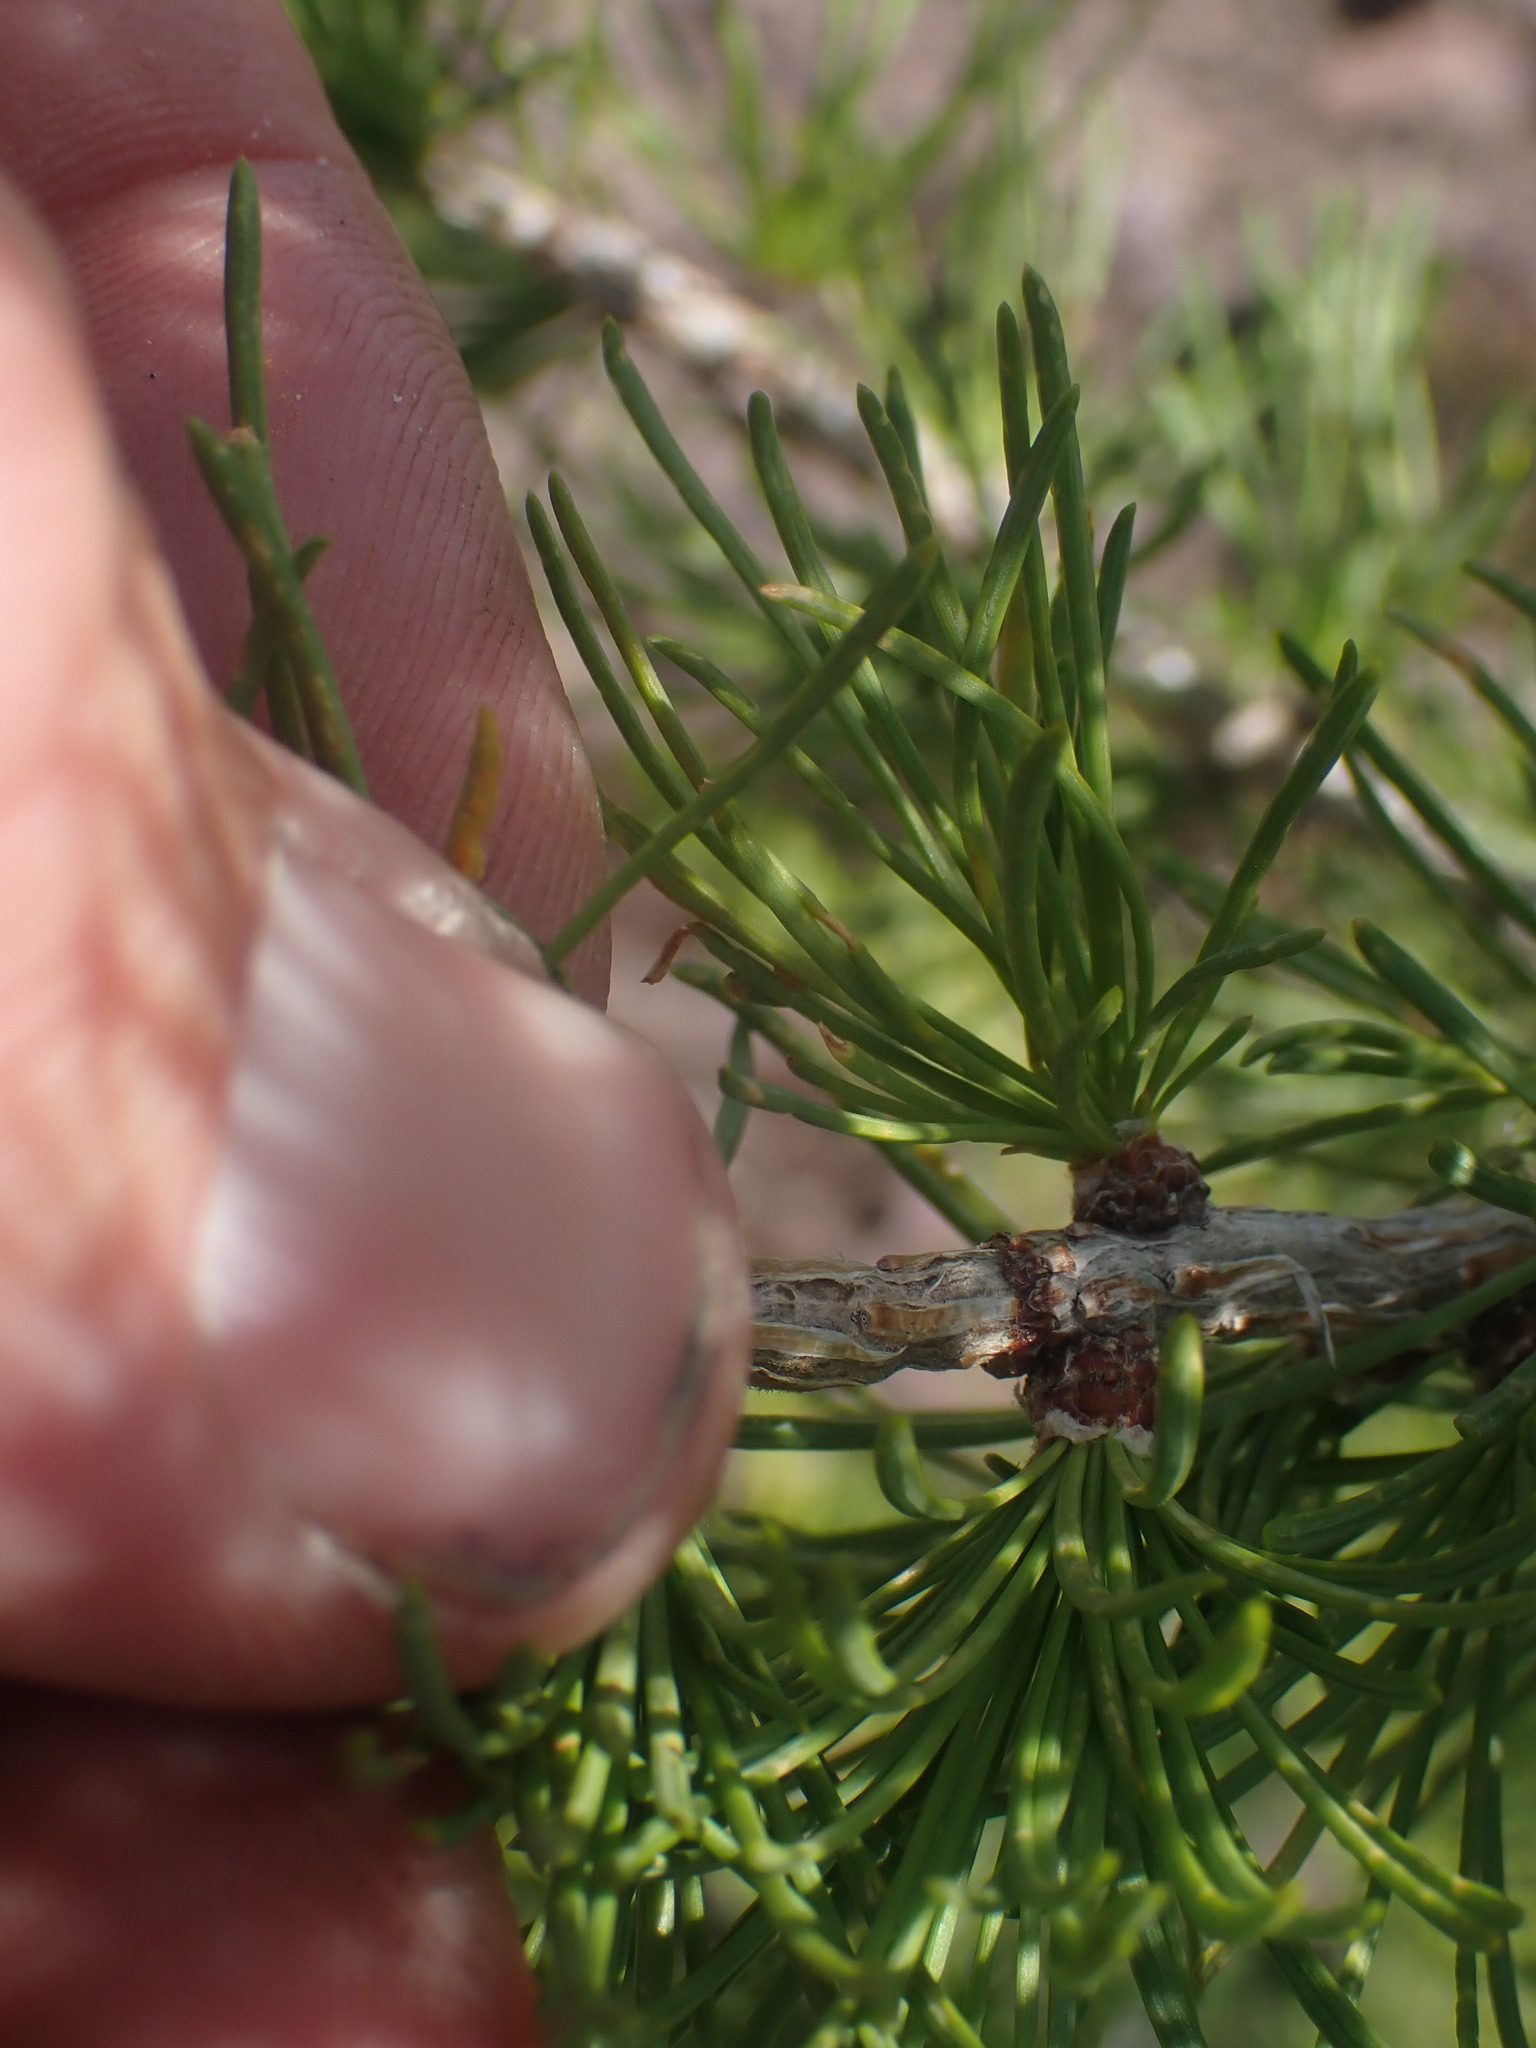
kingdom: Plantae
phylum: Tracheophyta
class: Pinopsida
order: Pinales
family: Pinaceae
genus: Larix
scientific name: Larix lyallii
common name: Alpine larch
